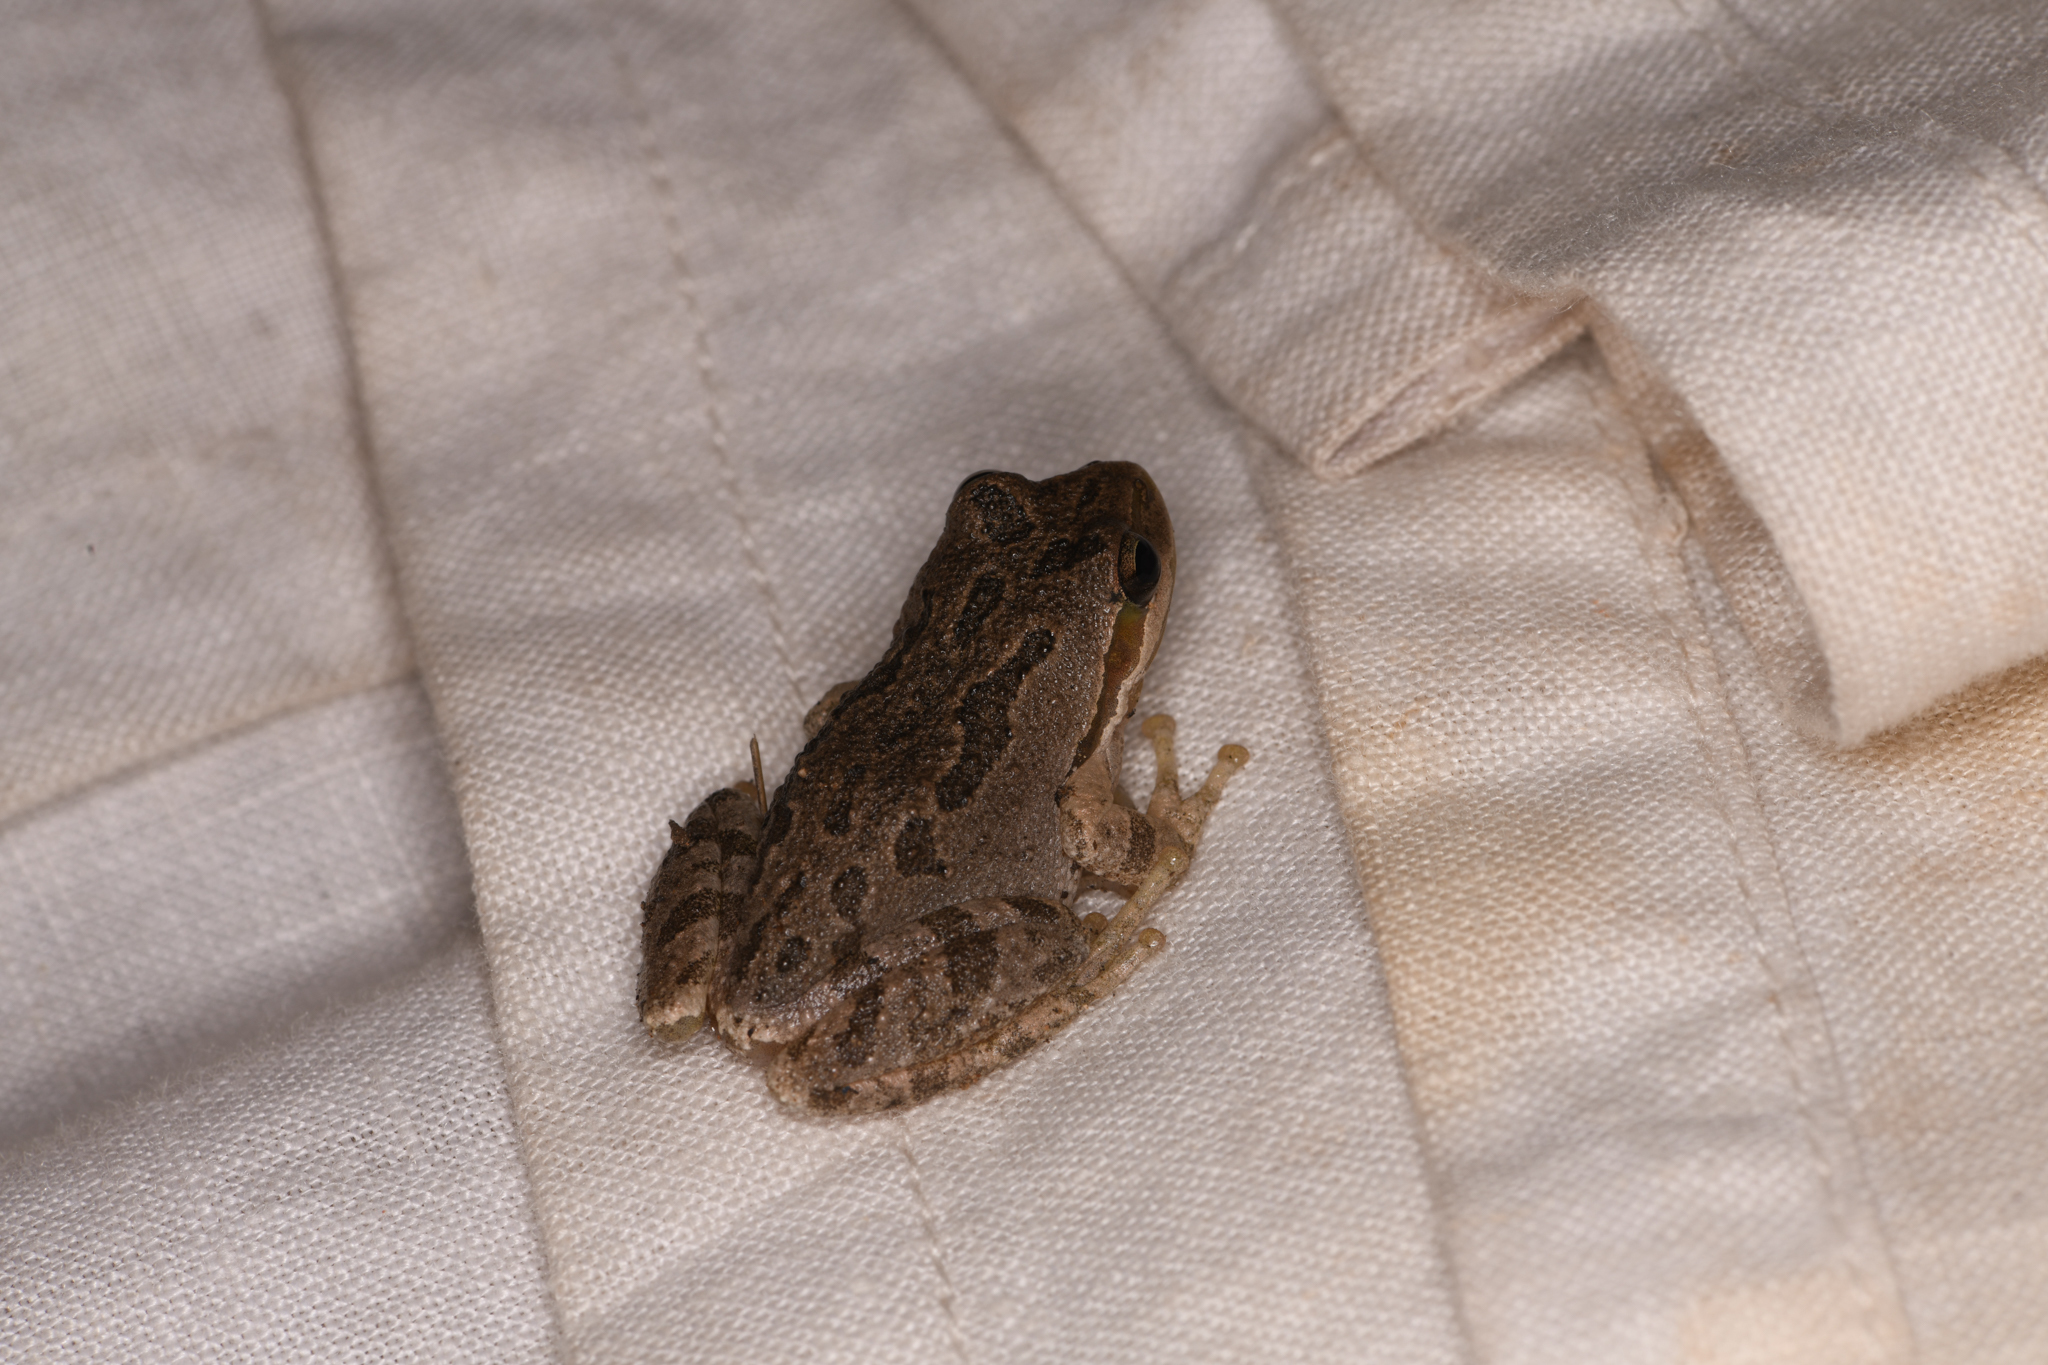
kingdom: Animalia
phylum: Chordata
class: Amphibia
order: Anura
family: Hylidae
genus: Pseudacris
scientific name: Pseudacris regilla
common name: Pacific chorus frog
